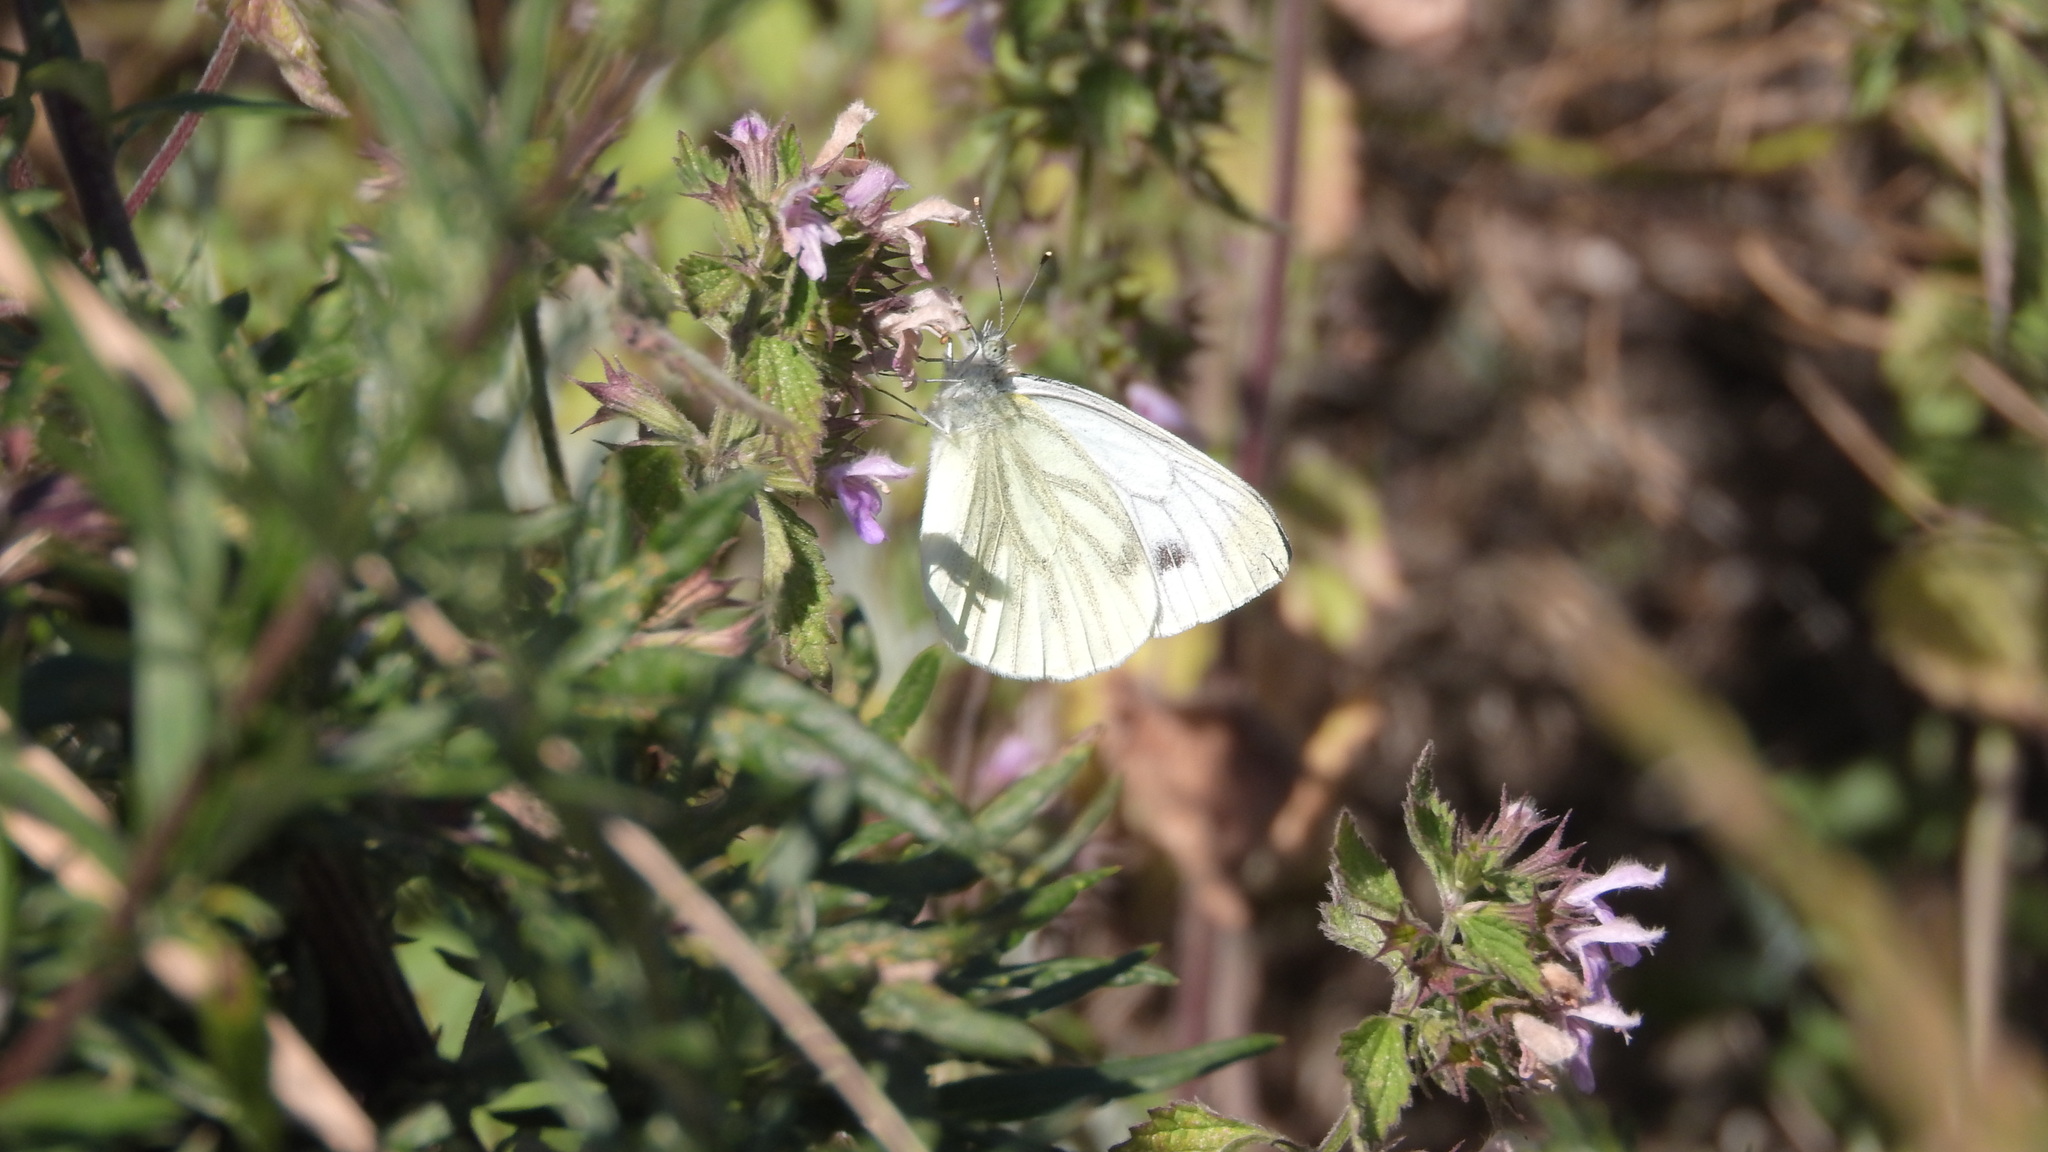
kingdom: Animalia
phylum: Arthropoda
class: Insecta
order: Lepidoptera
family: Pieridae
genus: Pieris
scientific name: Pieris napi
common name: Green-veined white
